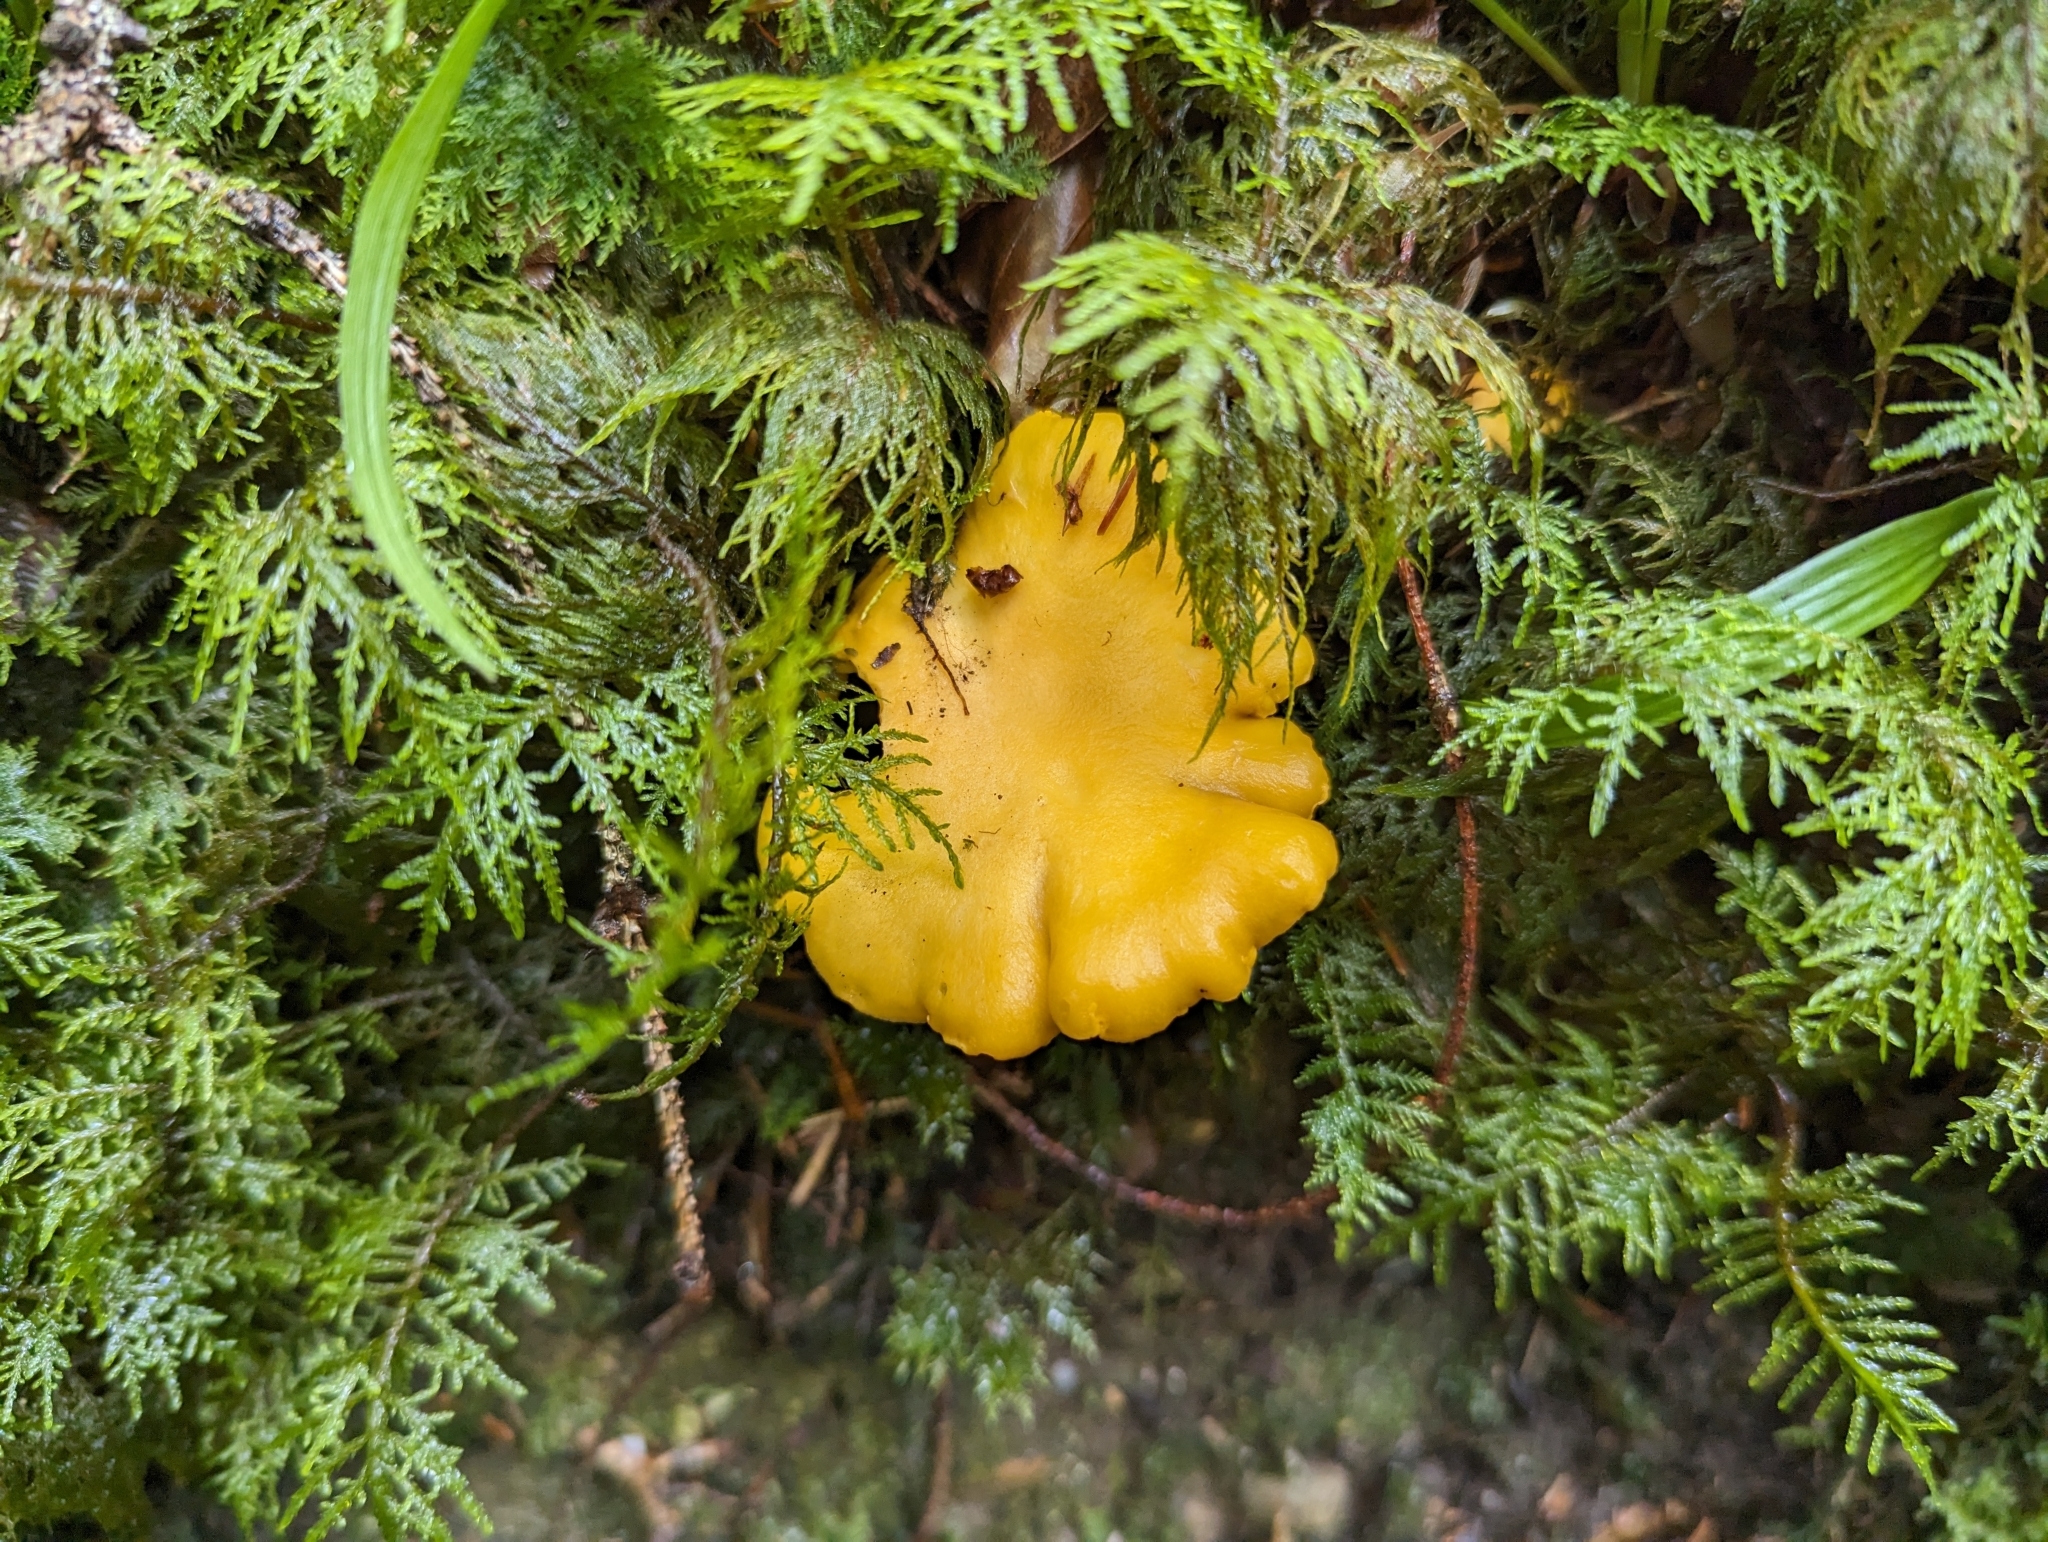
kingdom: Fungi
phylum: Basidiomycota
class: Agaricomycetes
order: Cantharellales
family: Hydnaceae
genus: Cantharellus
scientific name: Cantharellus cibarius
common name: Chanterelle
